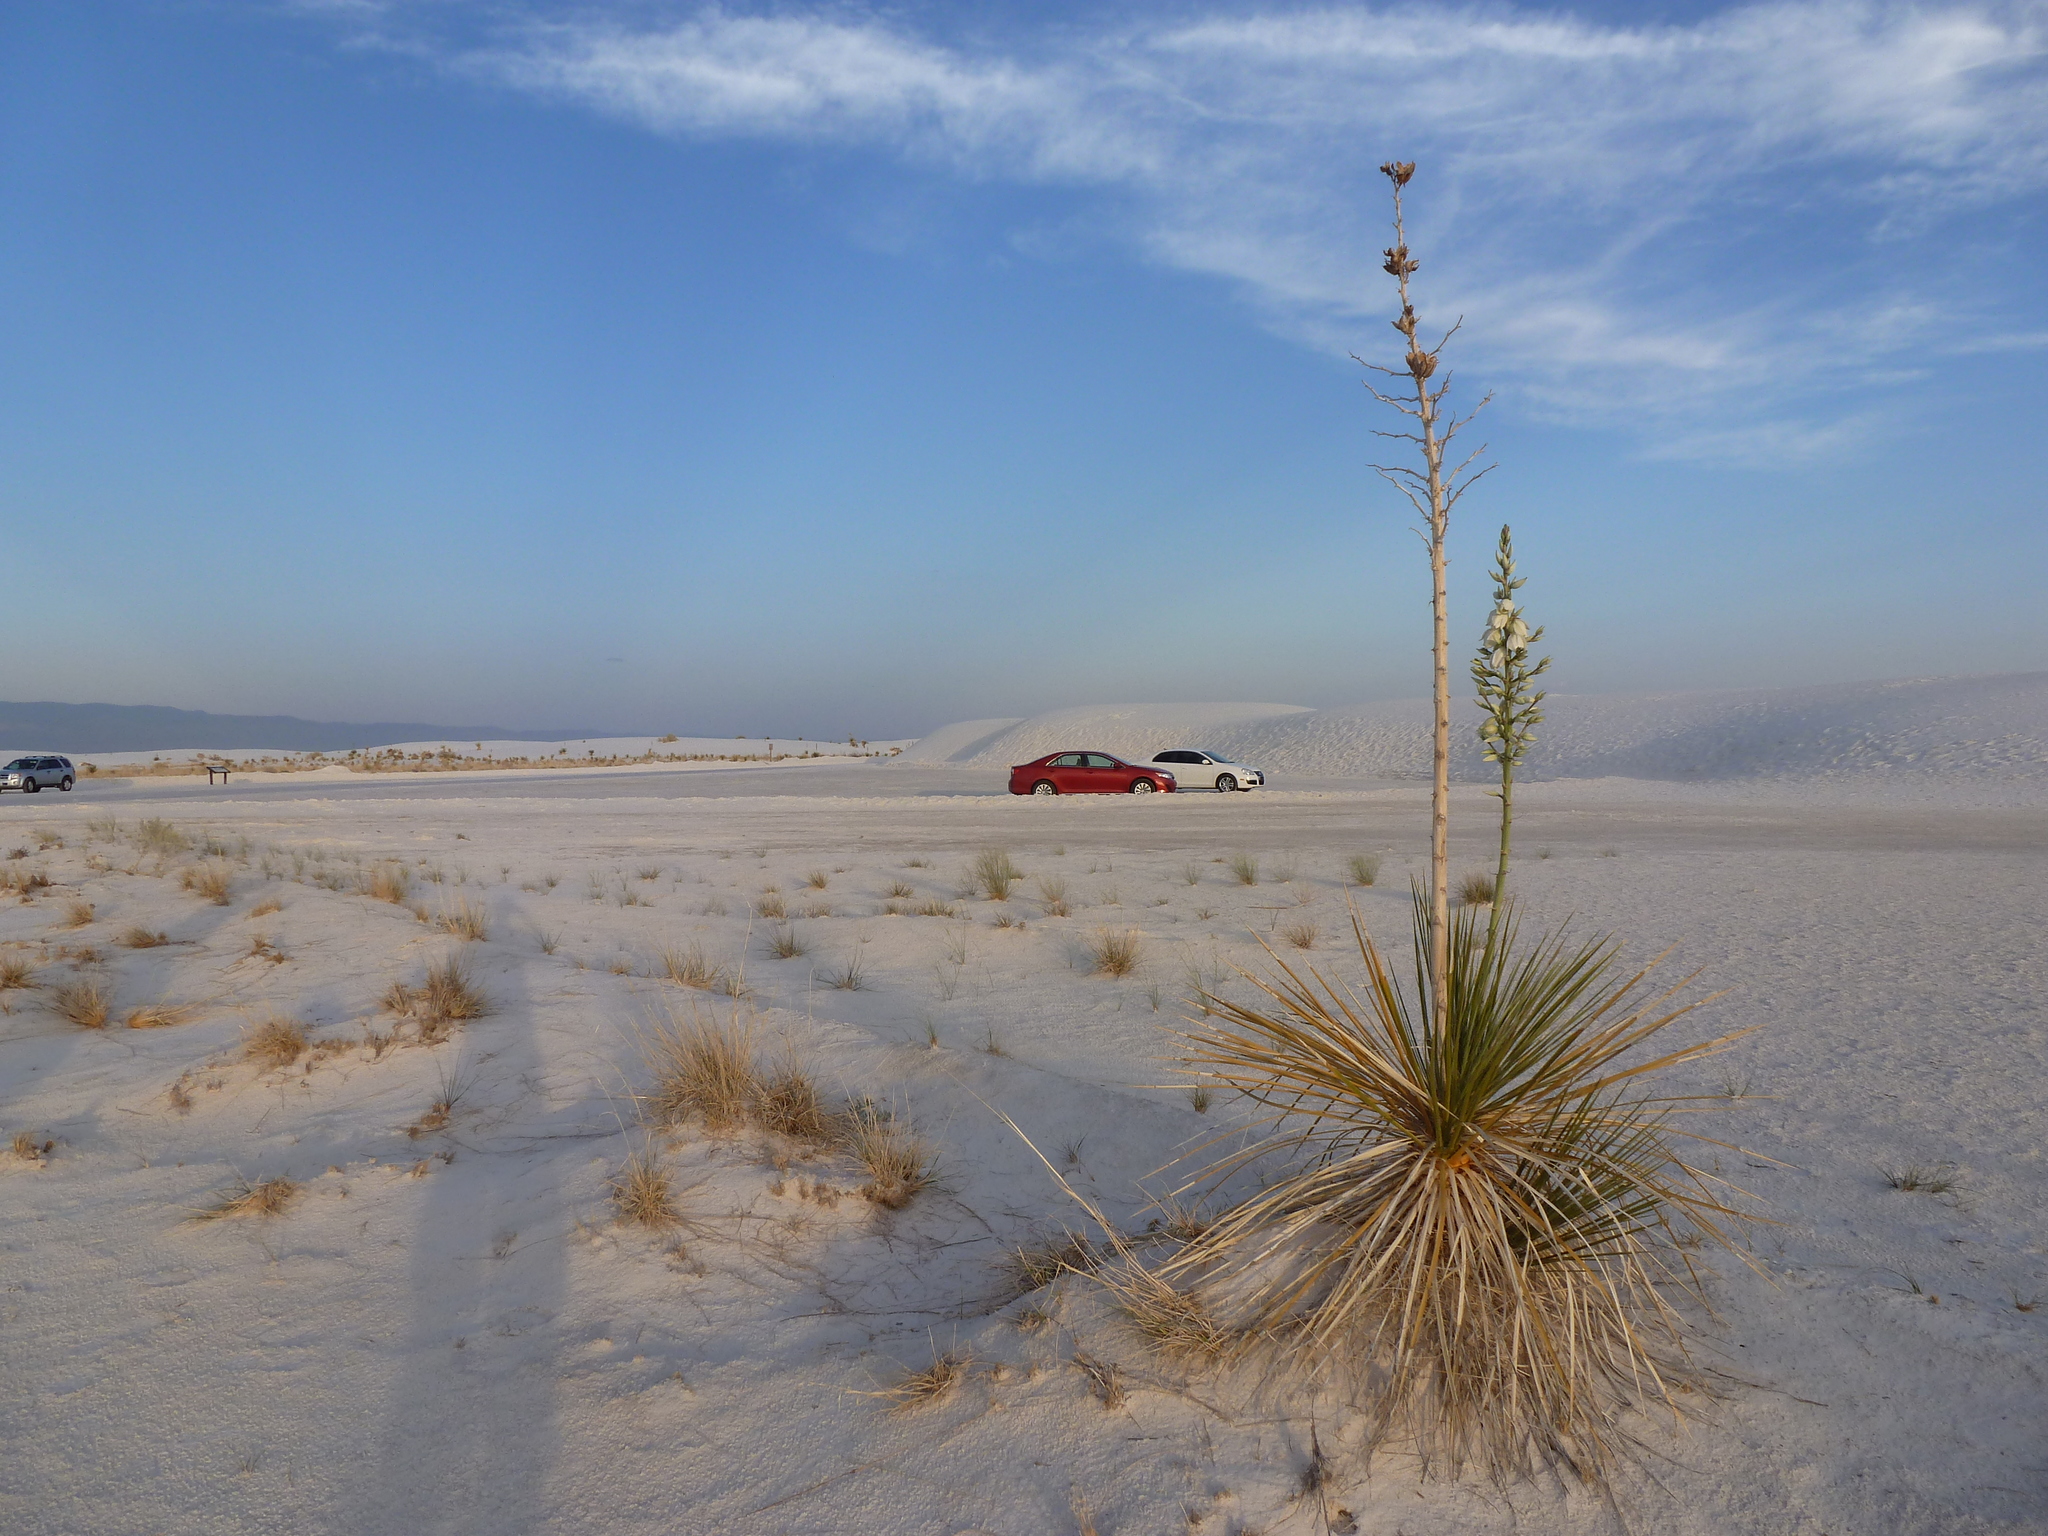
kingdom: Plantae
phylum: Tracheophyta
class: Liliopsida
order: Asparagales
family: Asparagaceae
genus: Yucca
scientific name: Yucca elata
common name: Palmella
